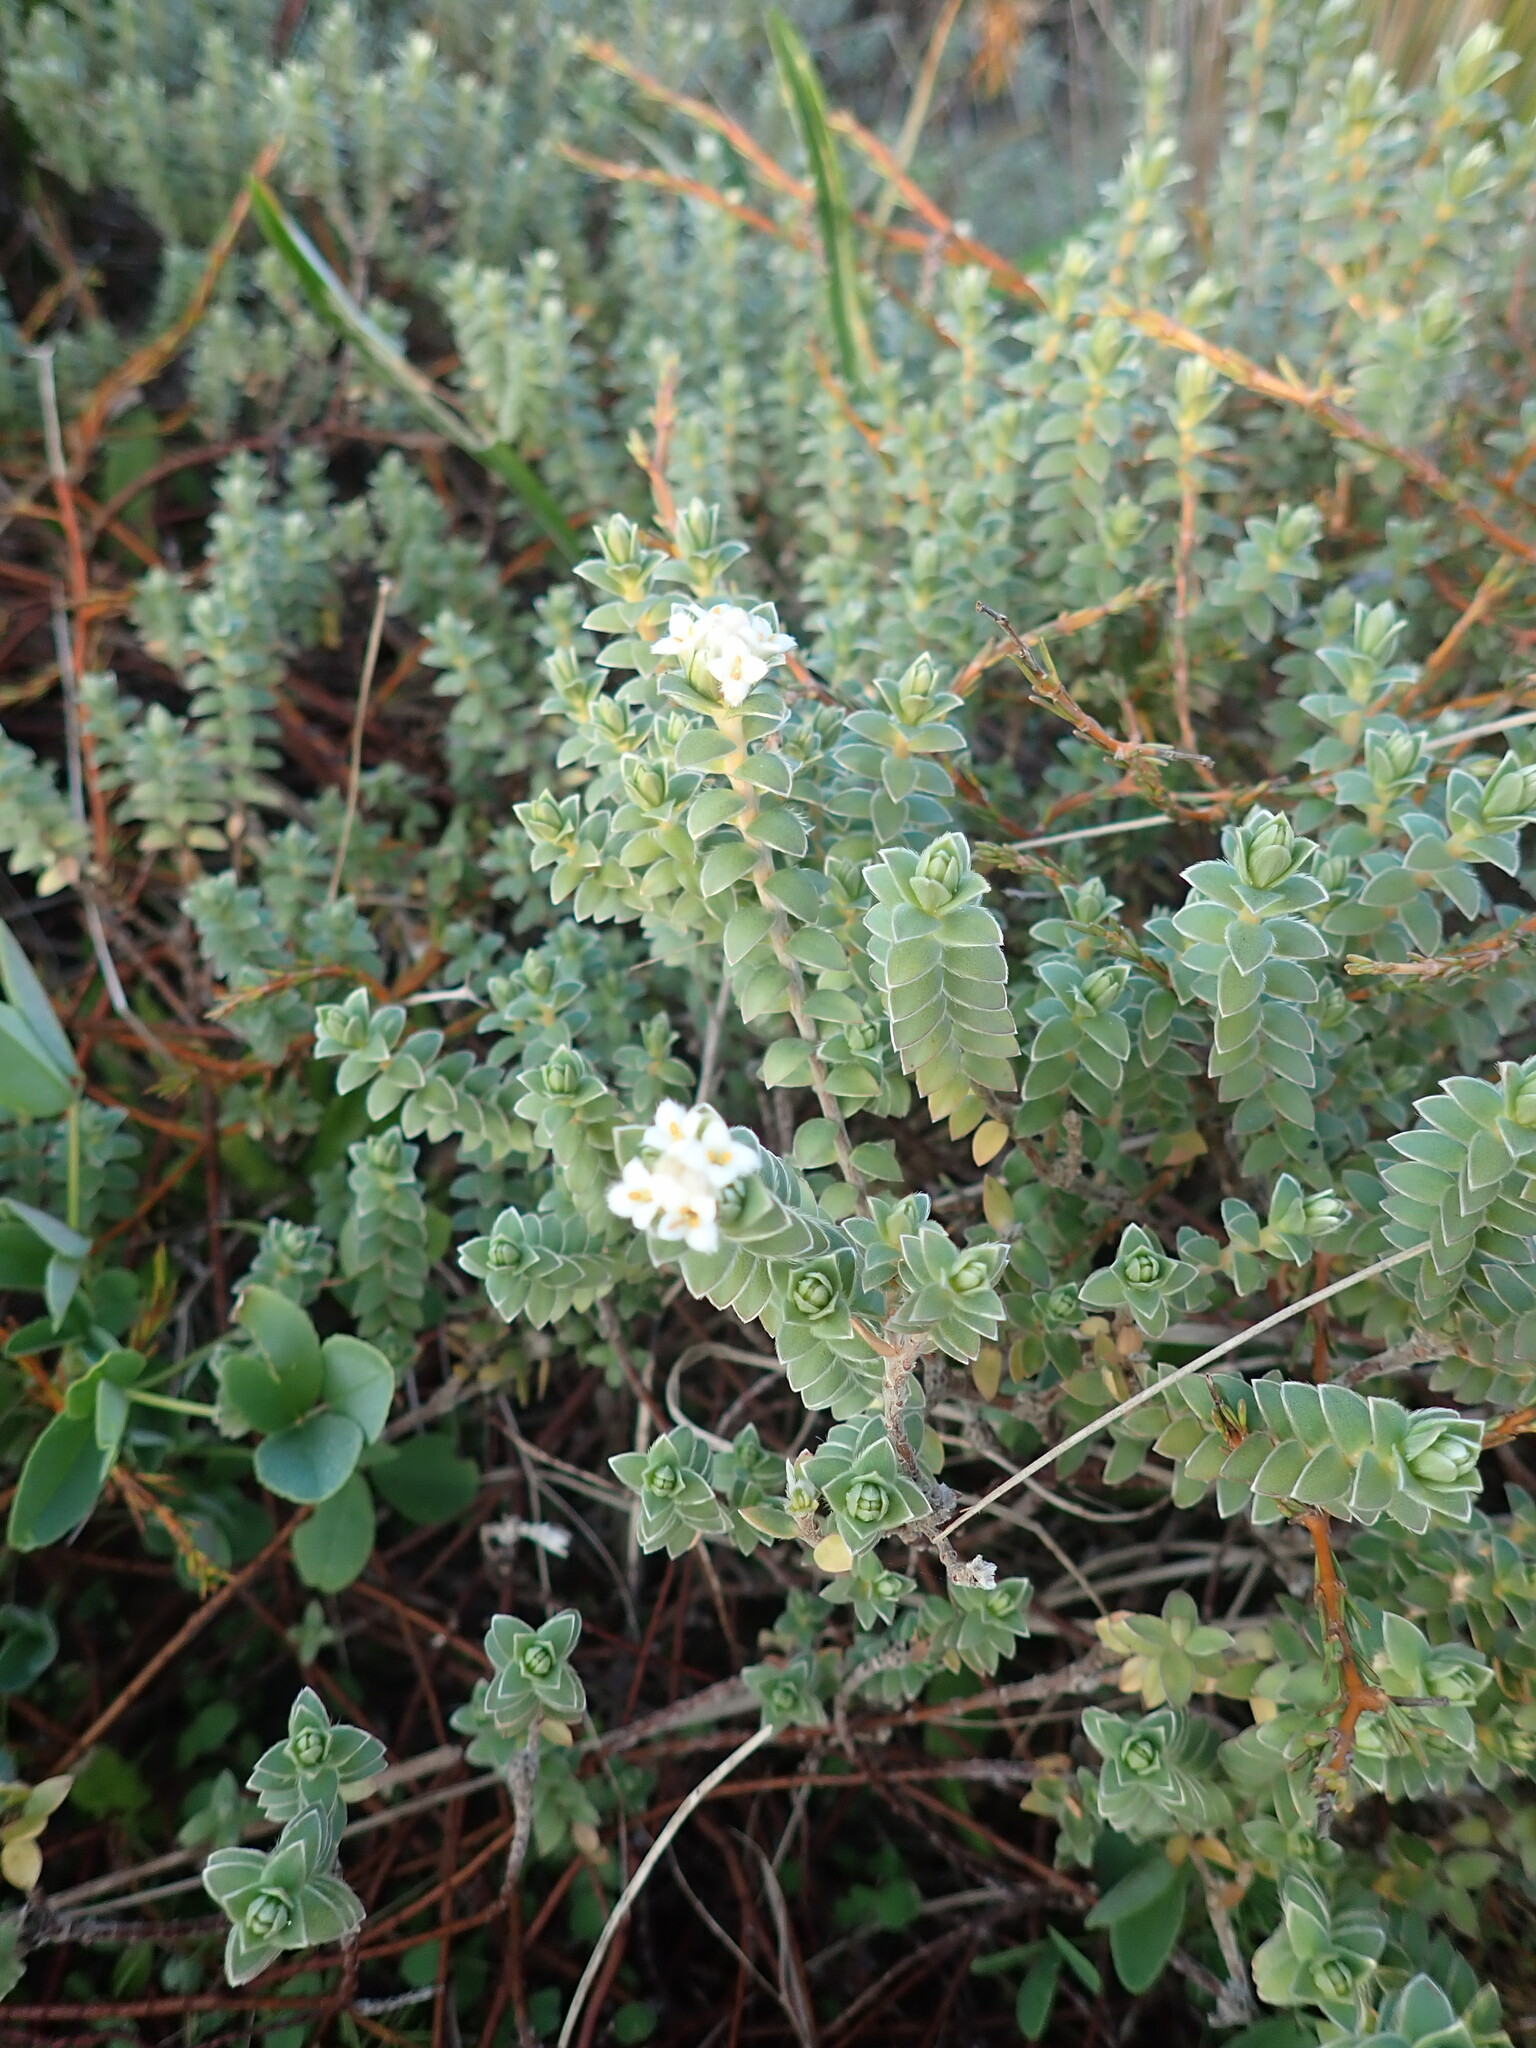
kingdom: Plantae
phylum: Tracheophyta
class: Magnoliopsida
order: Malvales
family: Thymelaeaceae
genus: Pimelea
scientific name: Pimelea villosa
